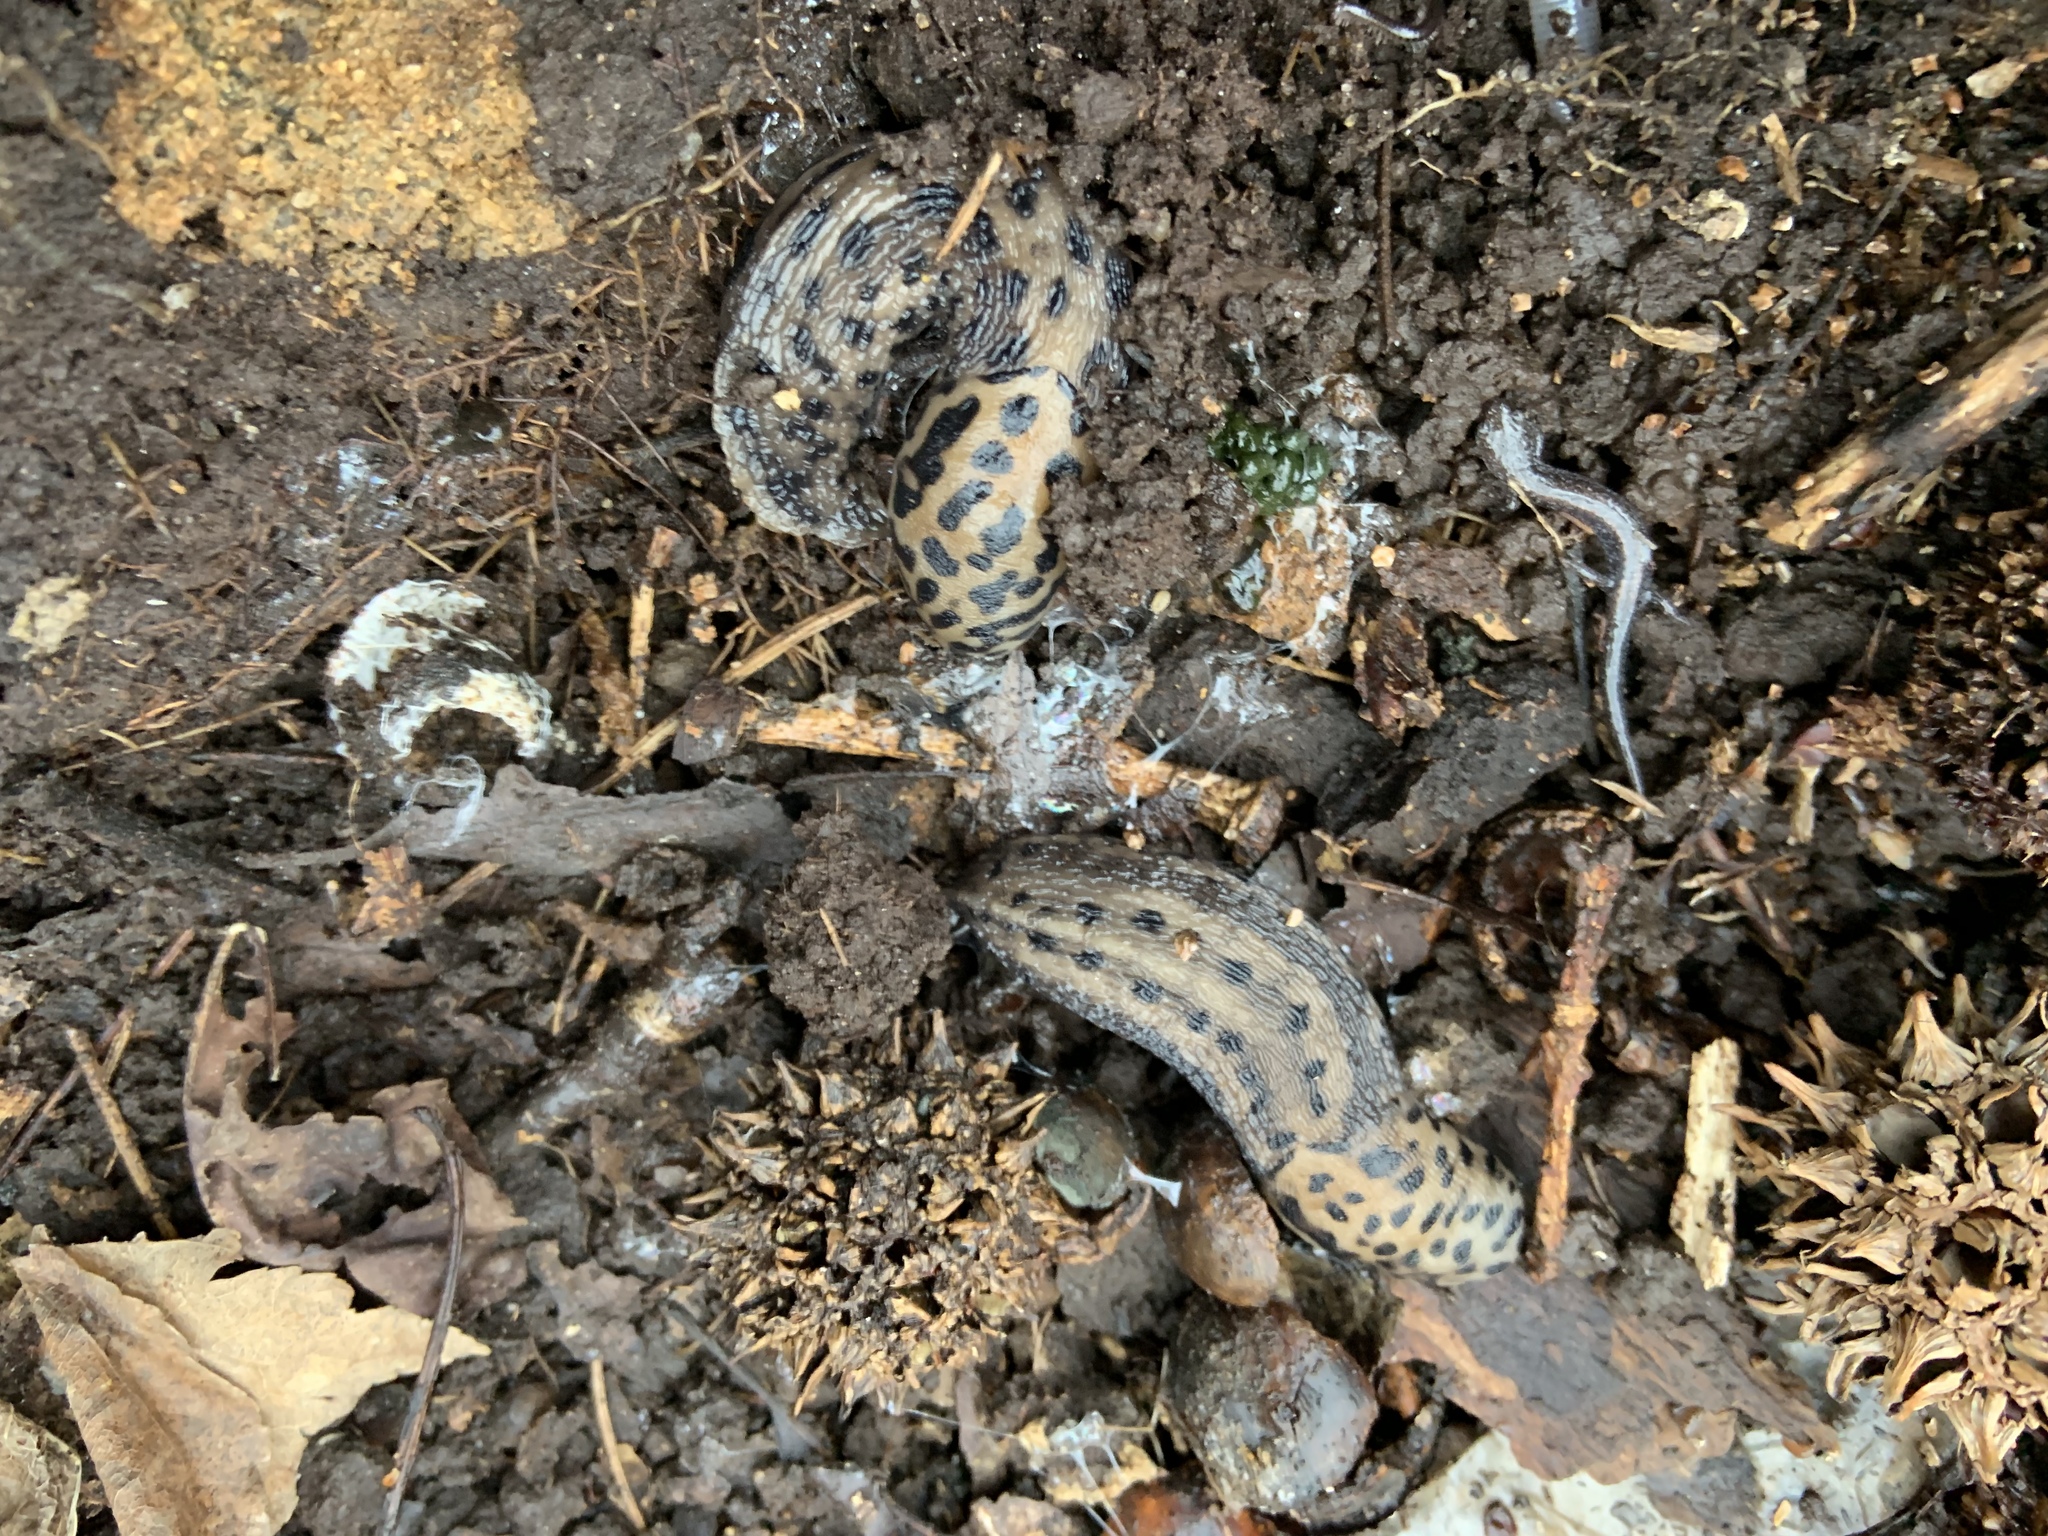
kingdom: Animalia
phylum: Mollusca
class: Gastropoda
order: Stylommatophora
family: Limacidae
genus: Limax
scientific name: Limax maximus
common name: Great grey slug
